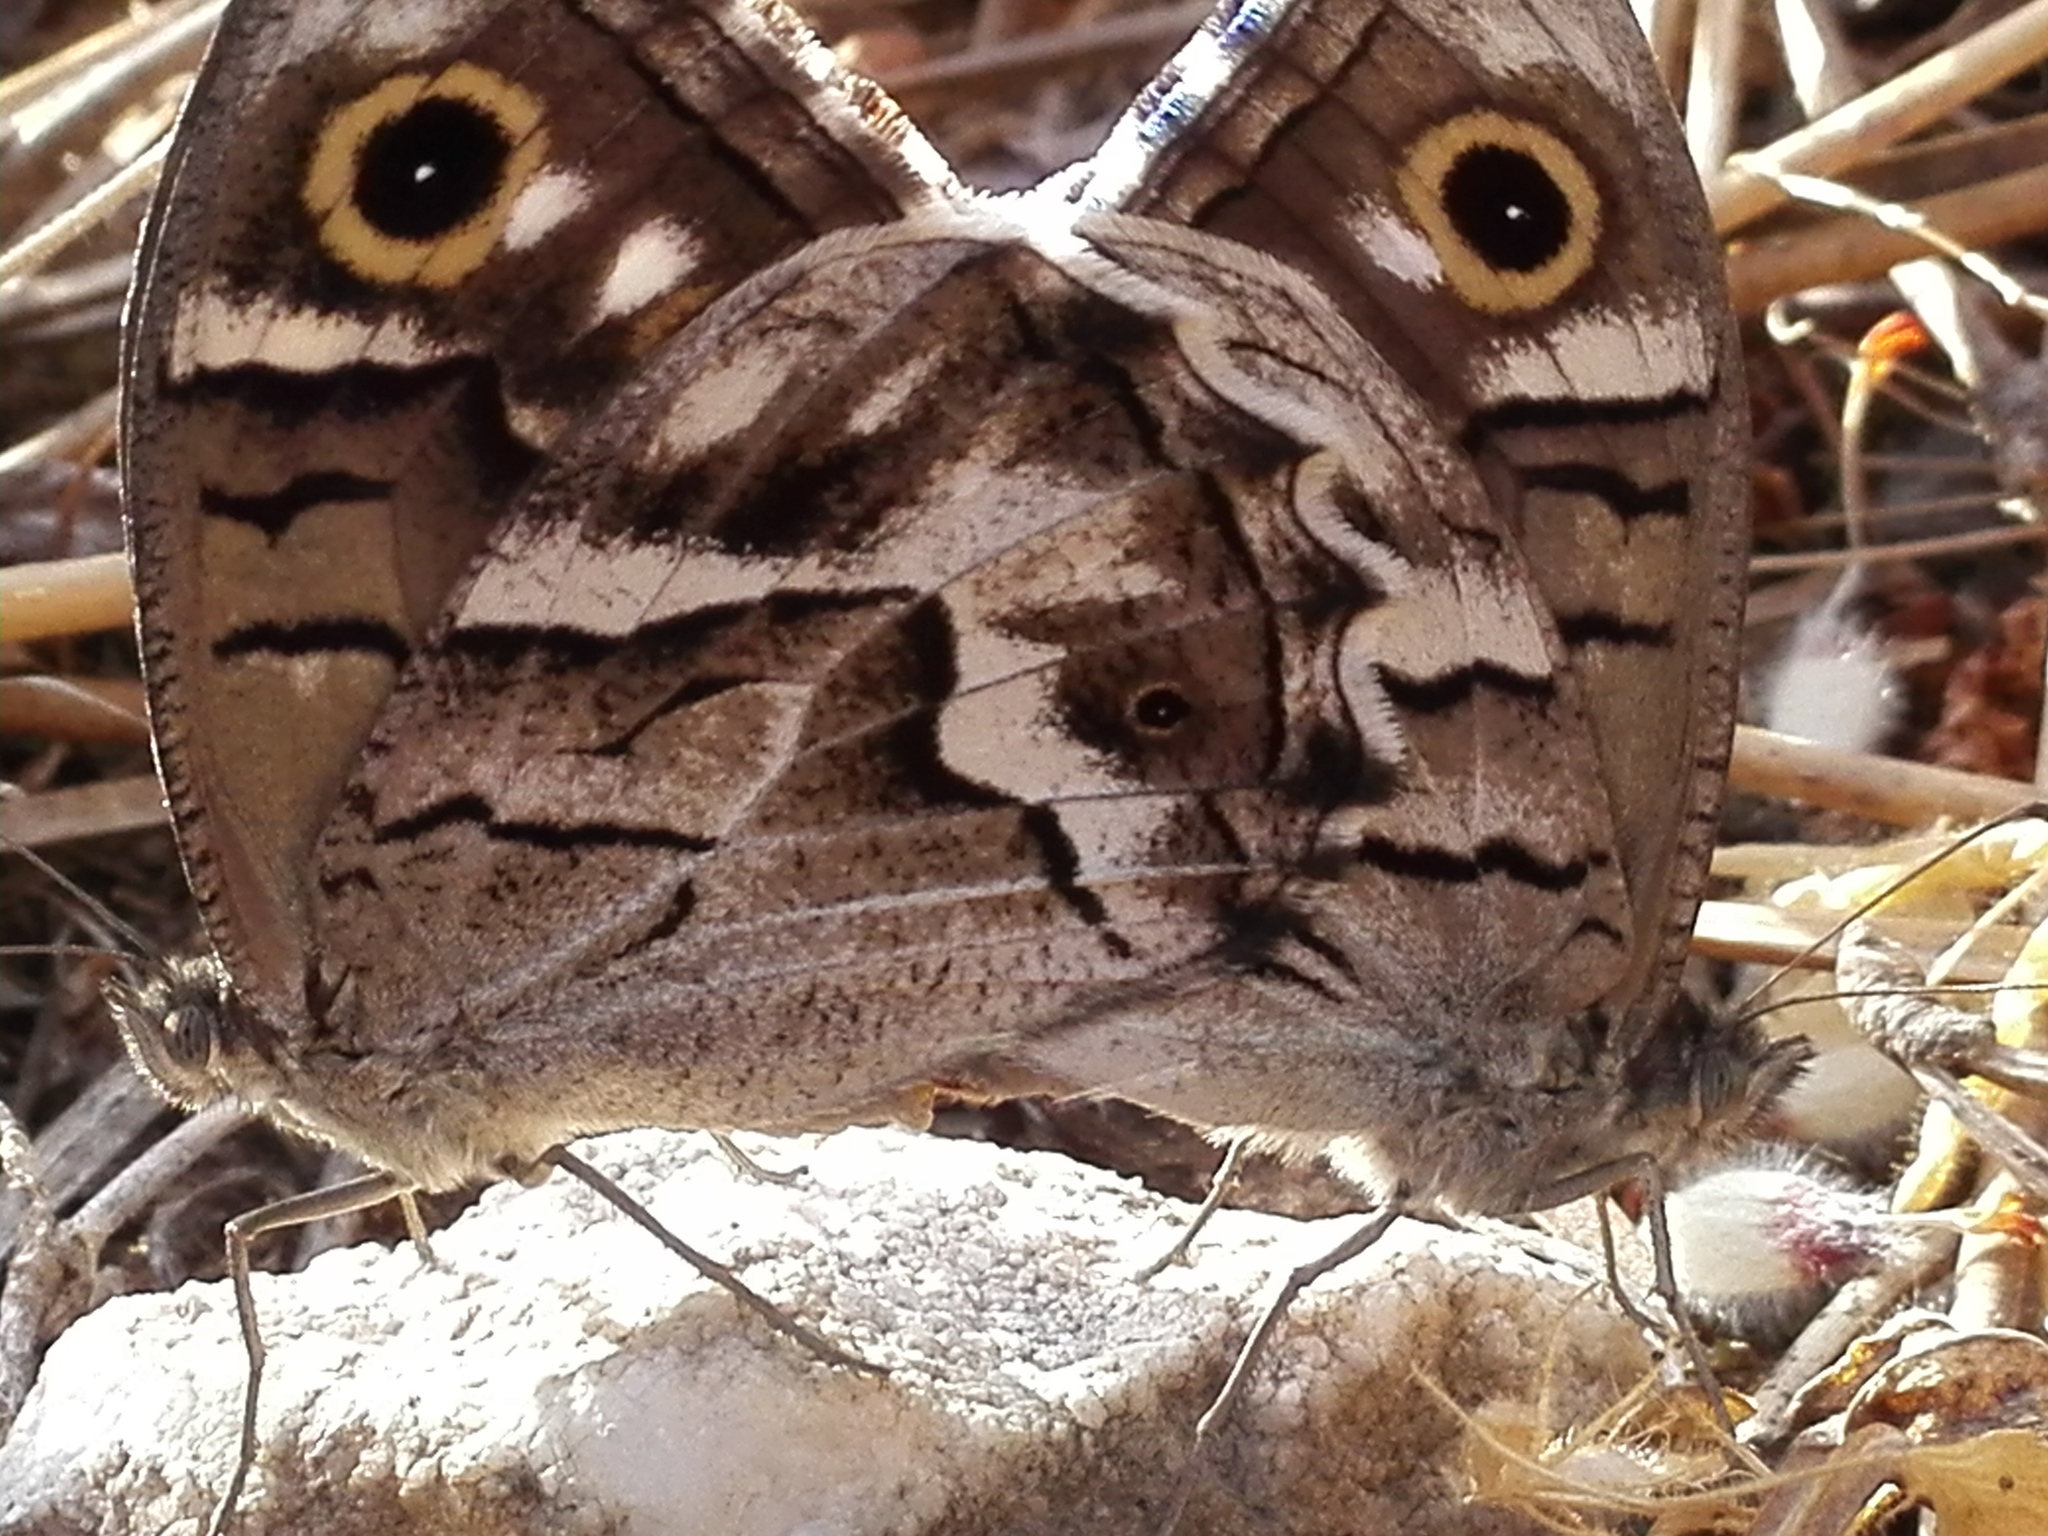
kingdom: Animalia
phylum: Arthropoda
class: Insecta
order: Lepidoptera
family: Nymphalidae
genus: Hipparchia
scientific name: Hipparchia fidia
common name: Striped grayling
